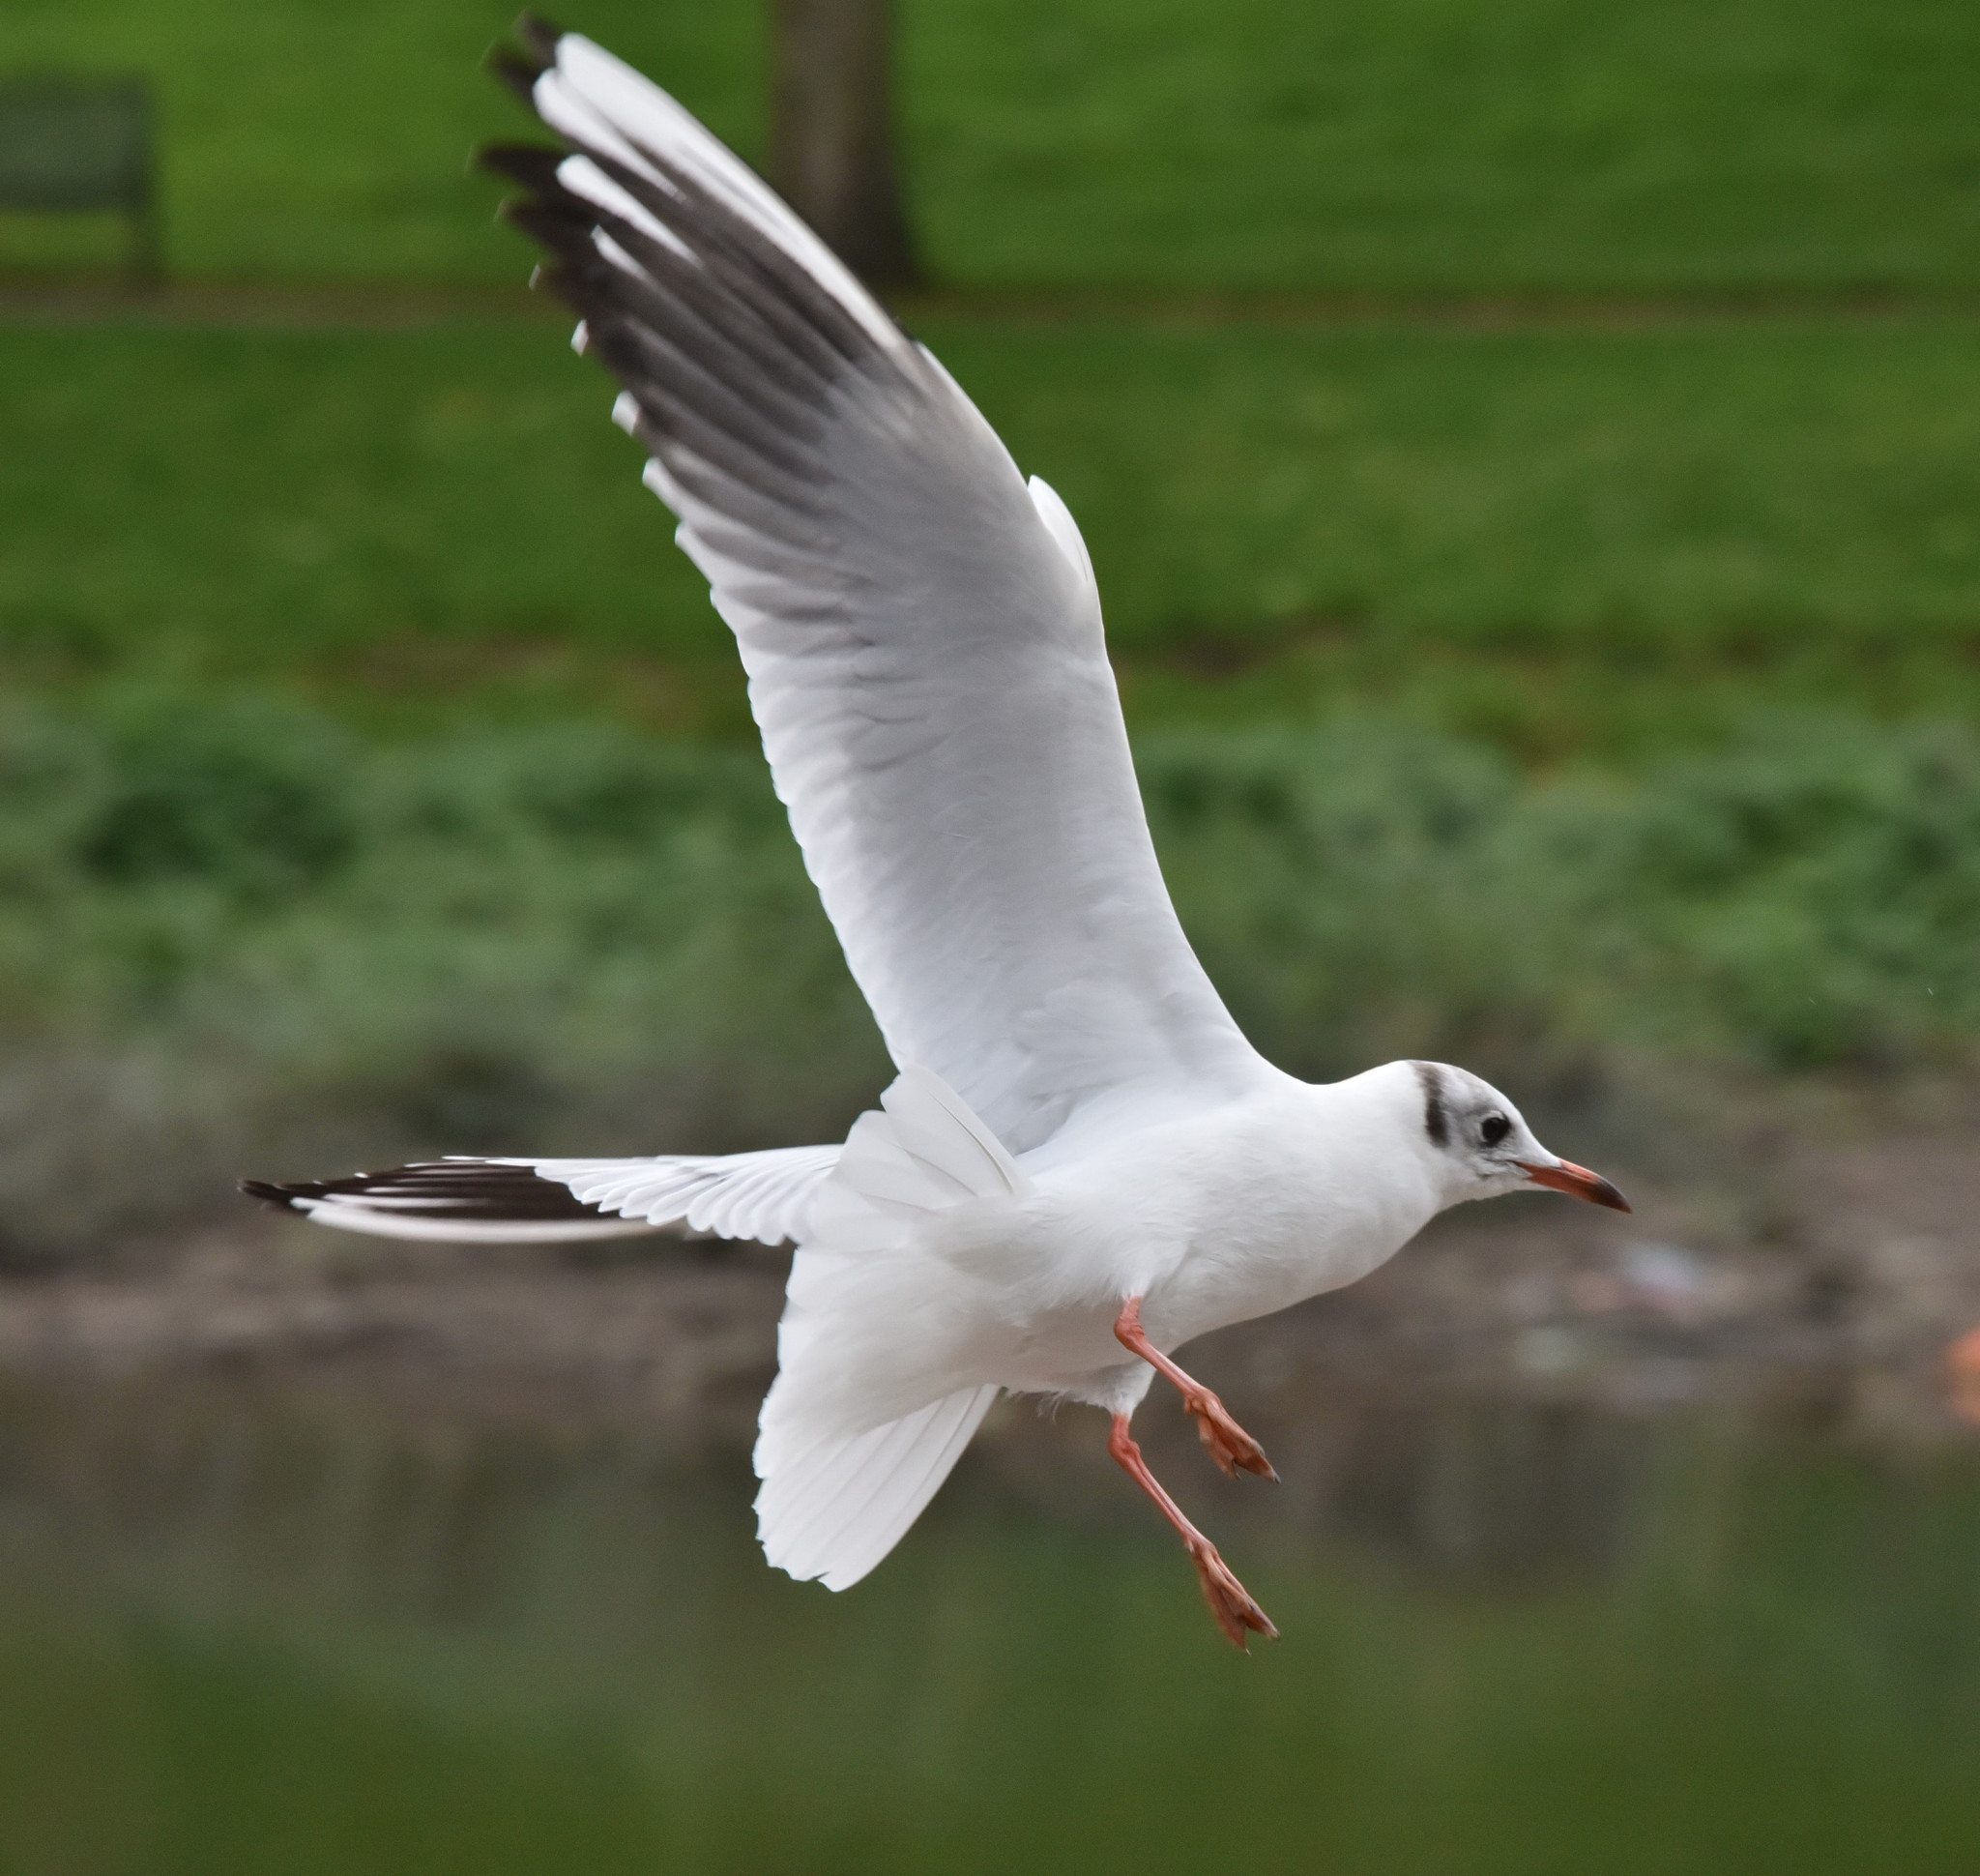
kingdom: Animalia
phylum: Chordata
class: Aves
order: Charadriiformes
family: Laridae
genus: Chroicocephalus
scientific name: Chroicocephalus ridibundus
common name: Black-headed gull
